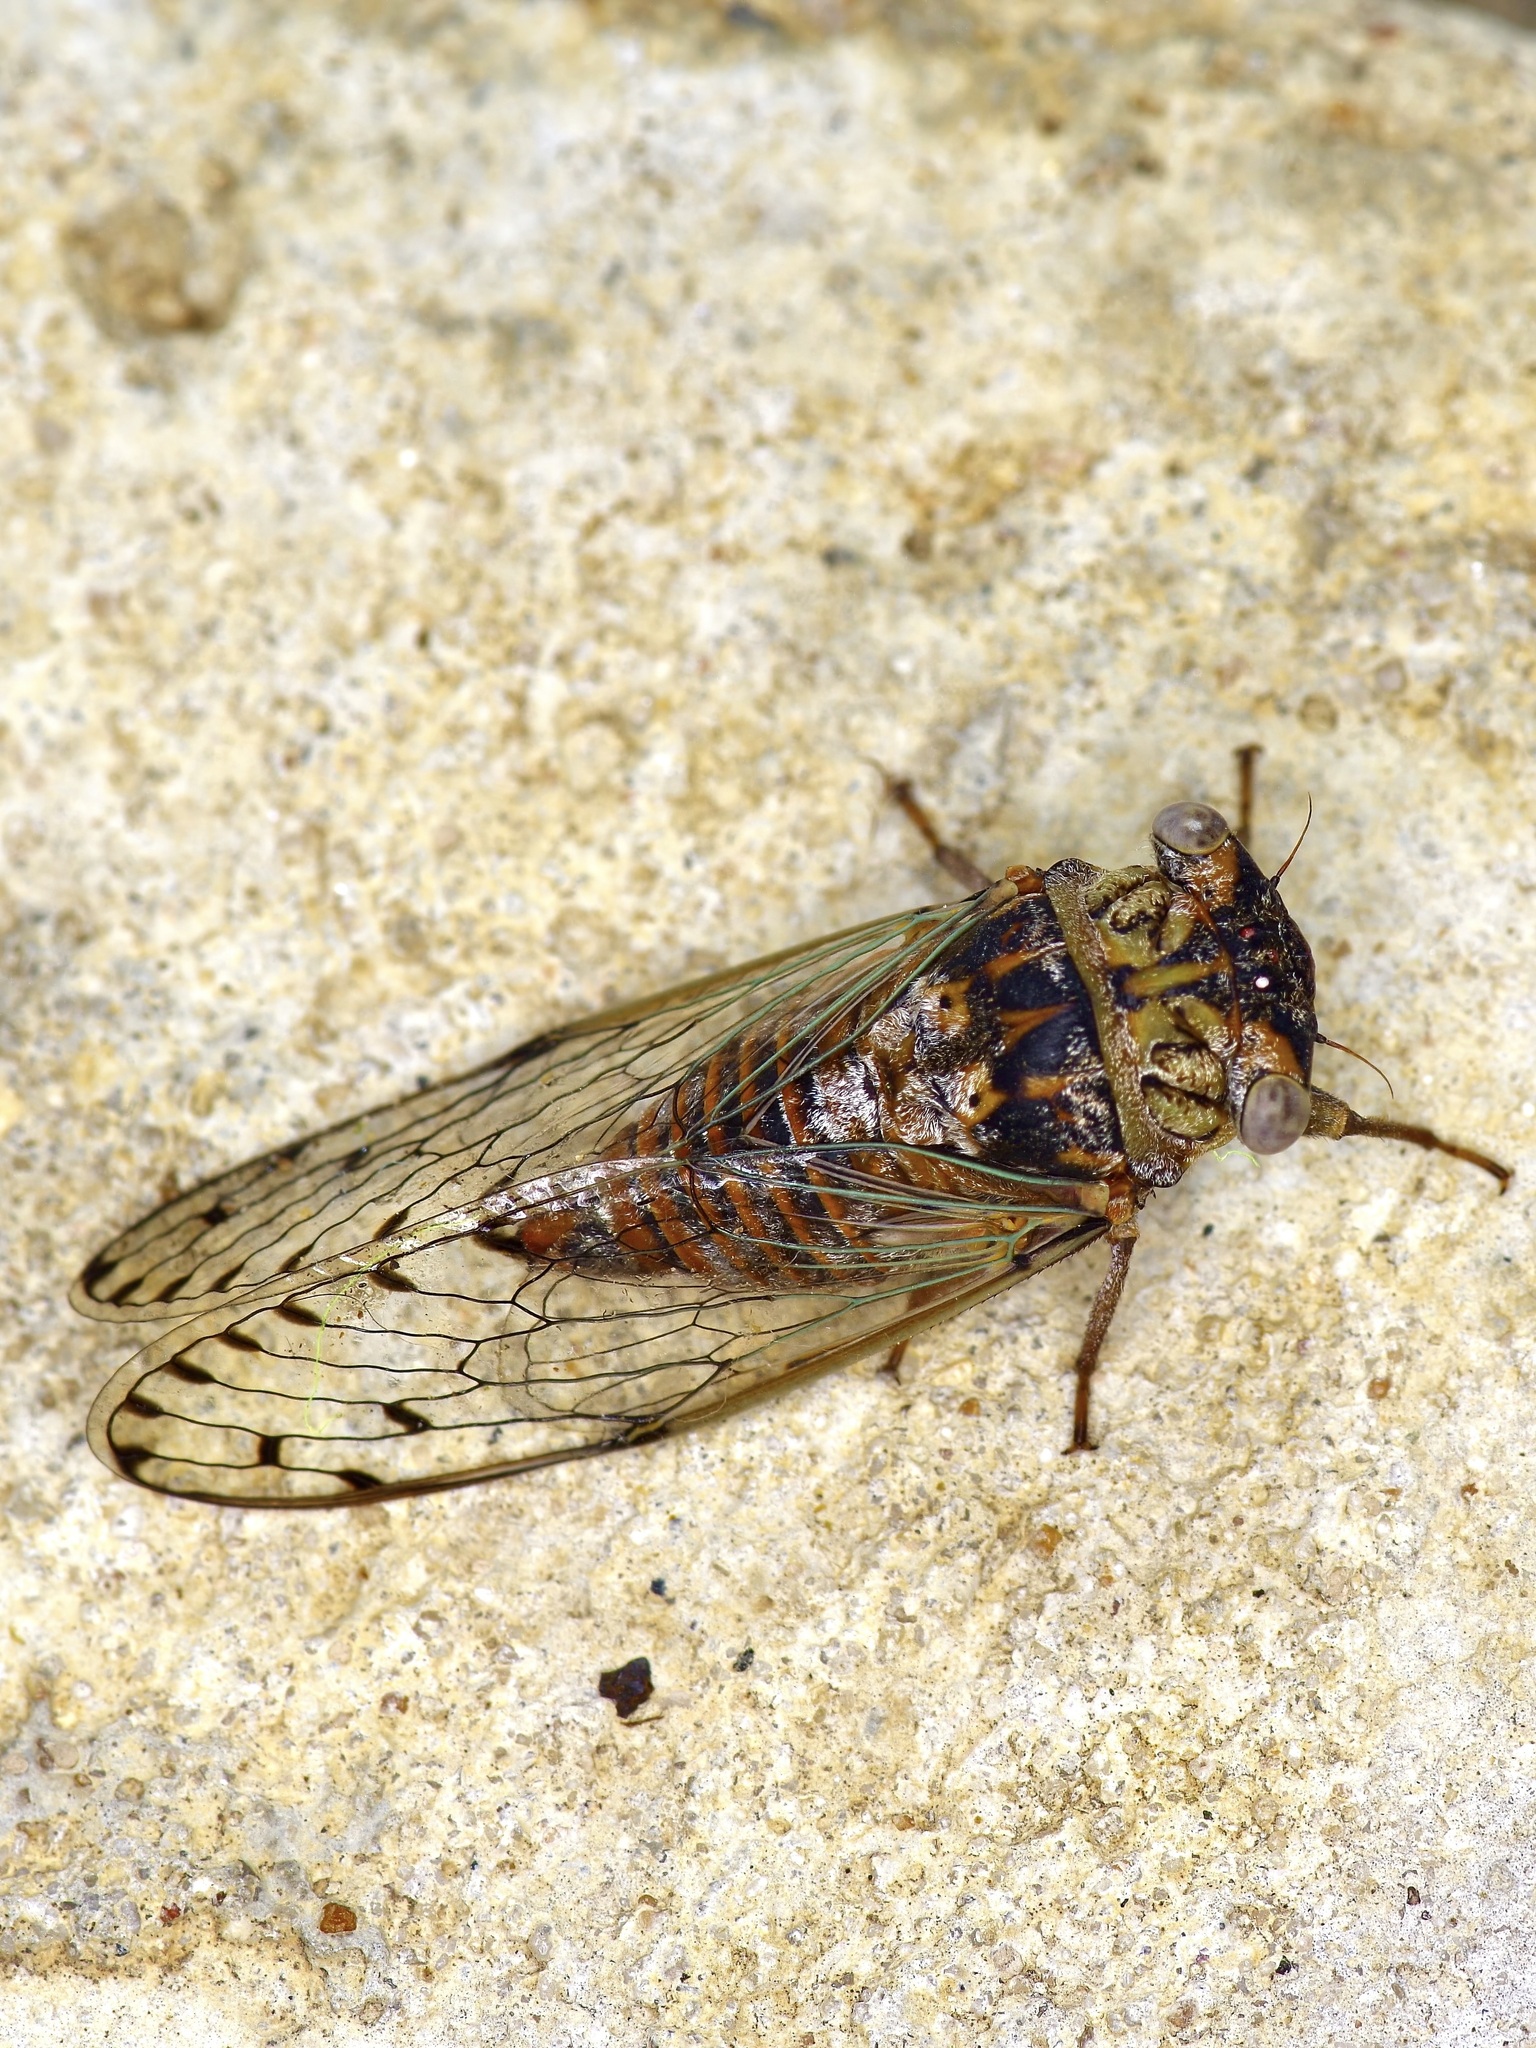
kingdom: Animalia
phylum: Arthropoda
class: Insecta
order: Hemiptera
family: Cicadidae
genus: Pacarina
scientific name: Pacarina puella
